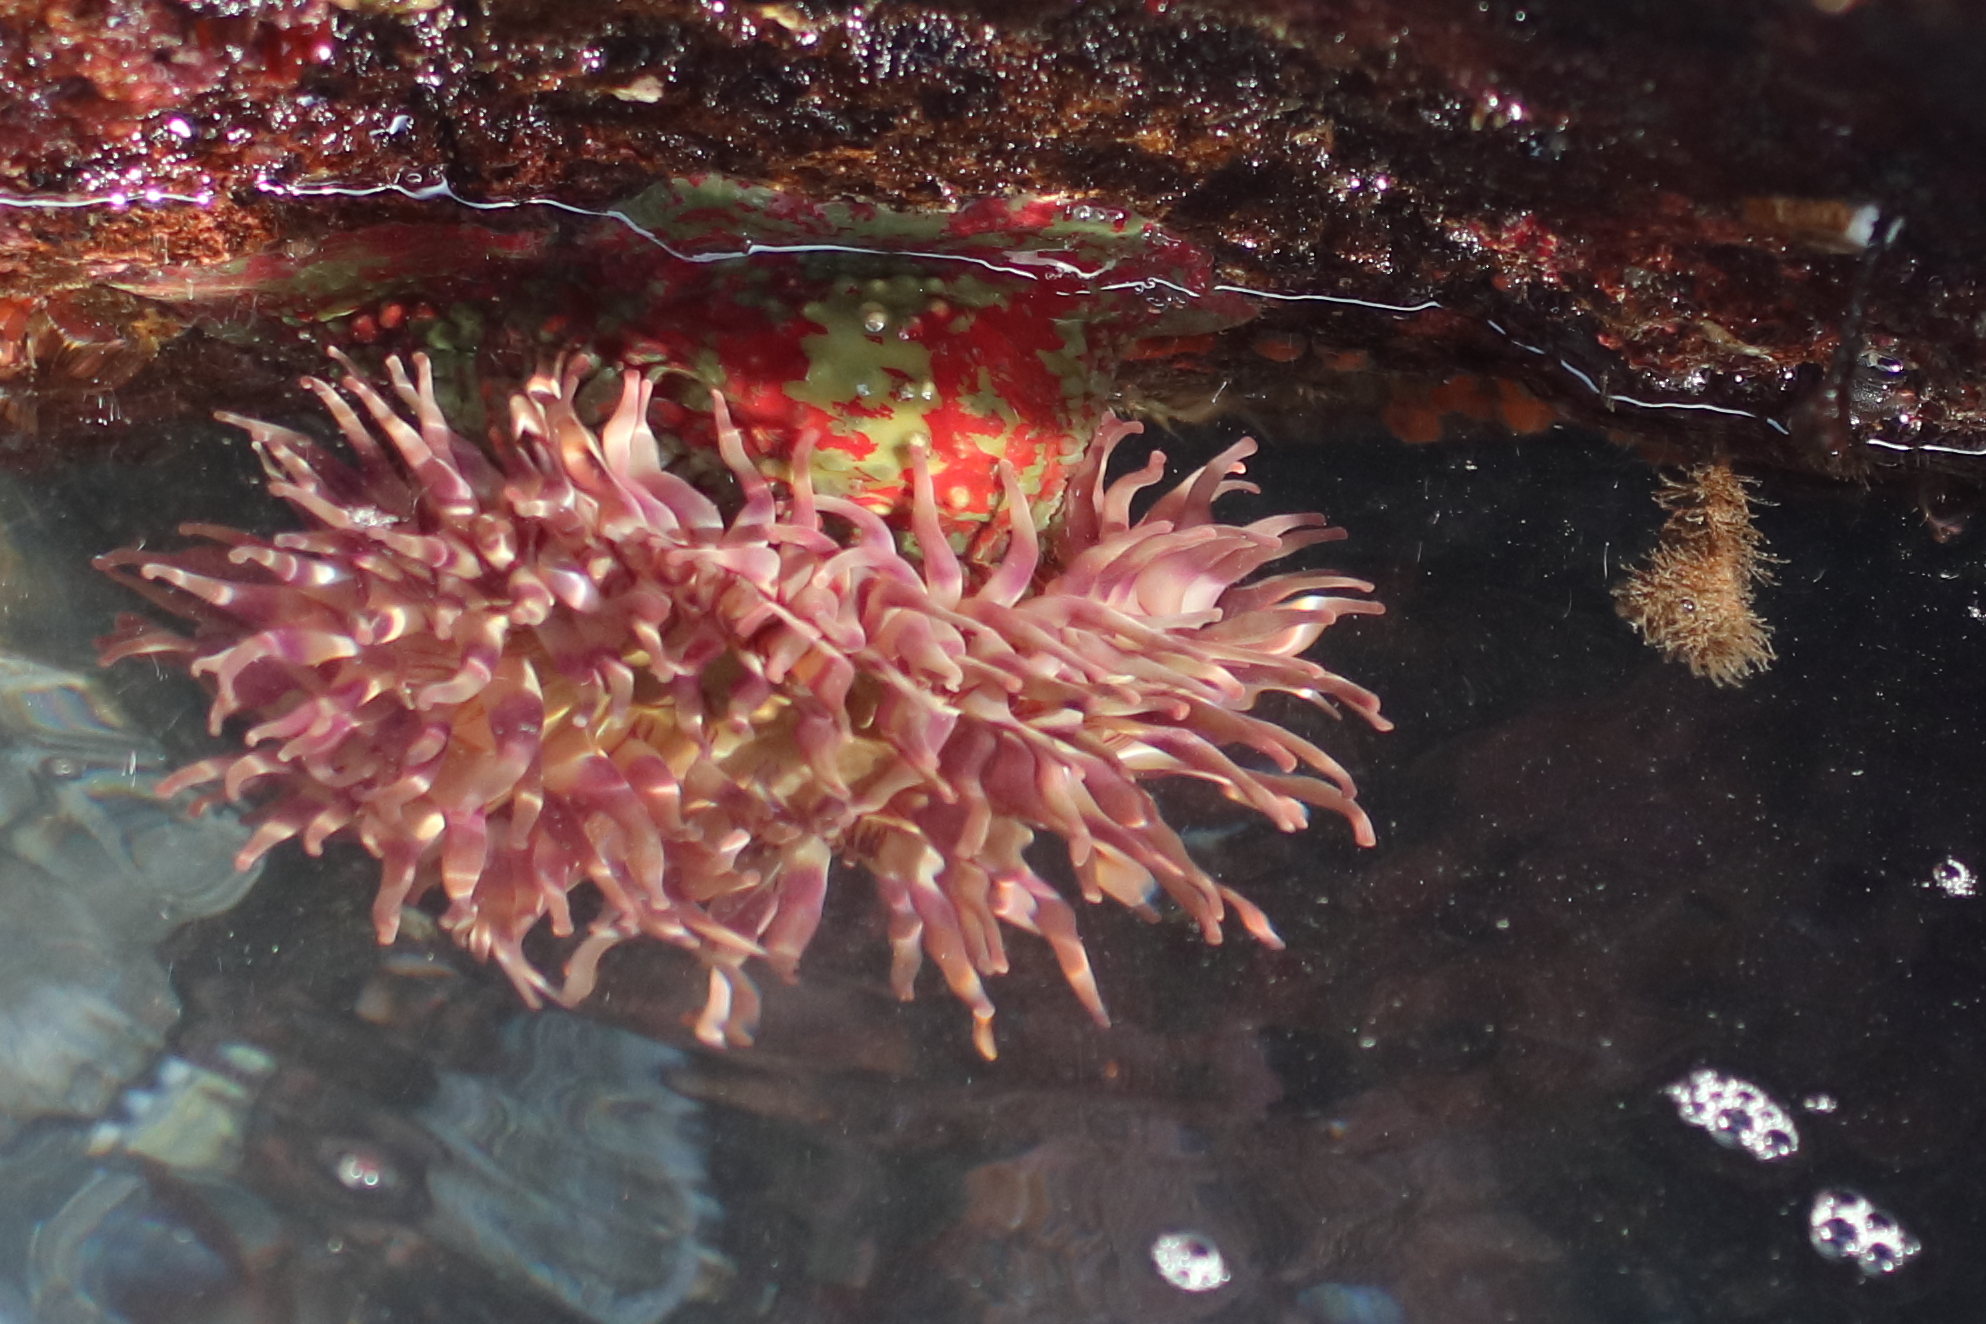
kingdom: Animalia
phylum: Cnidaria
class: Anthozoa
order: Actiniaria
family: Actiniidae
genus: Urticina
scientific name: Urticina grebelnyi
